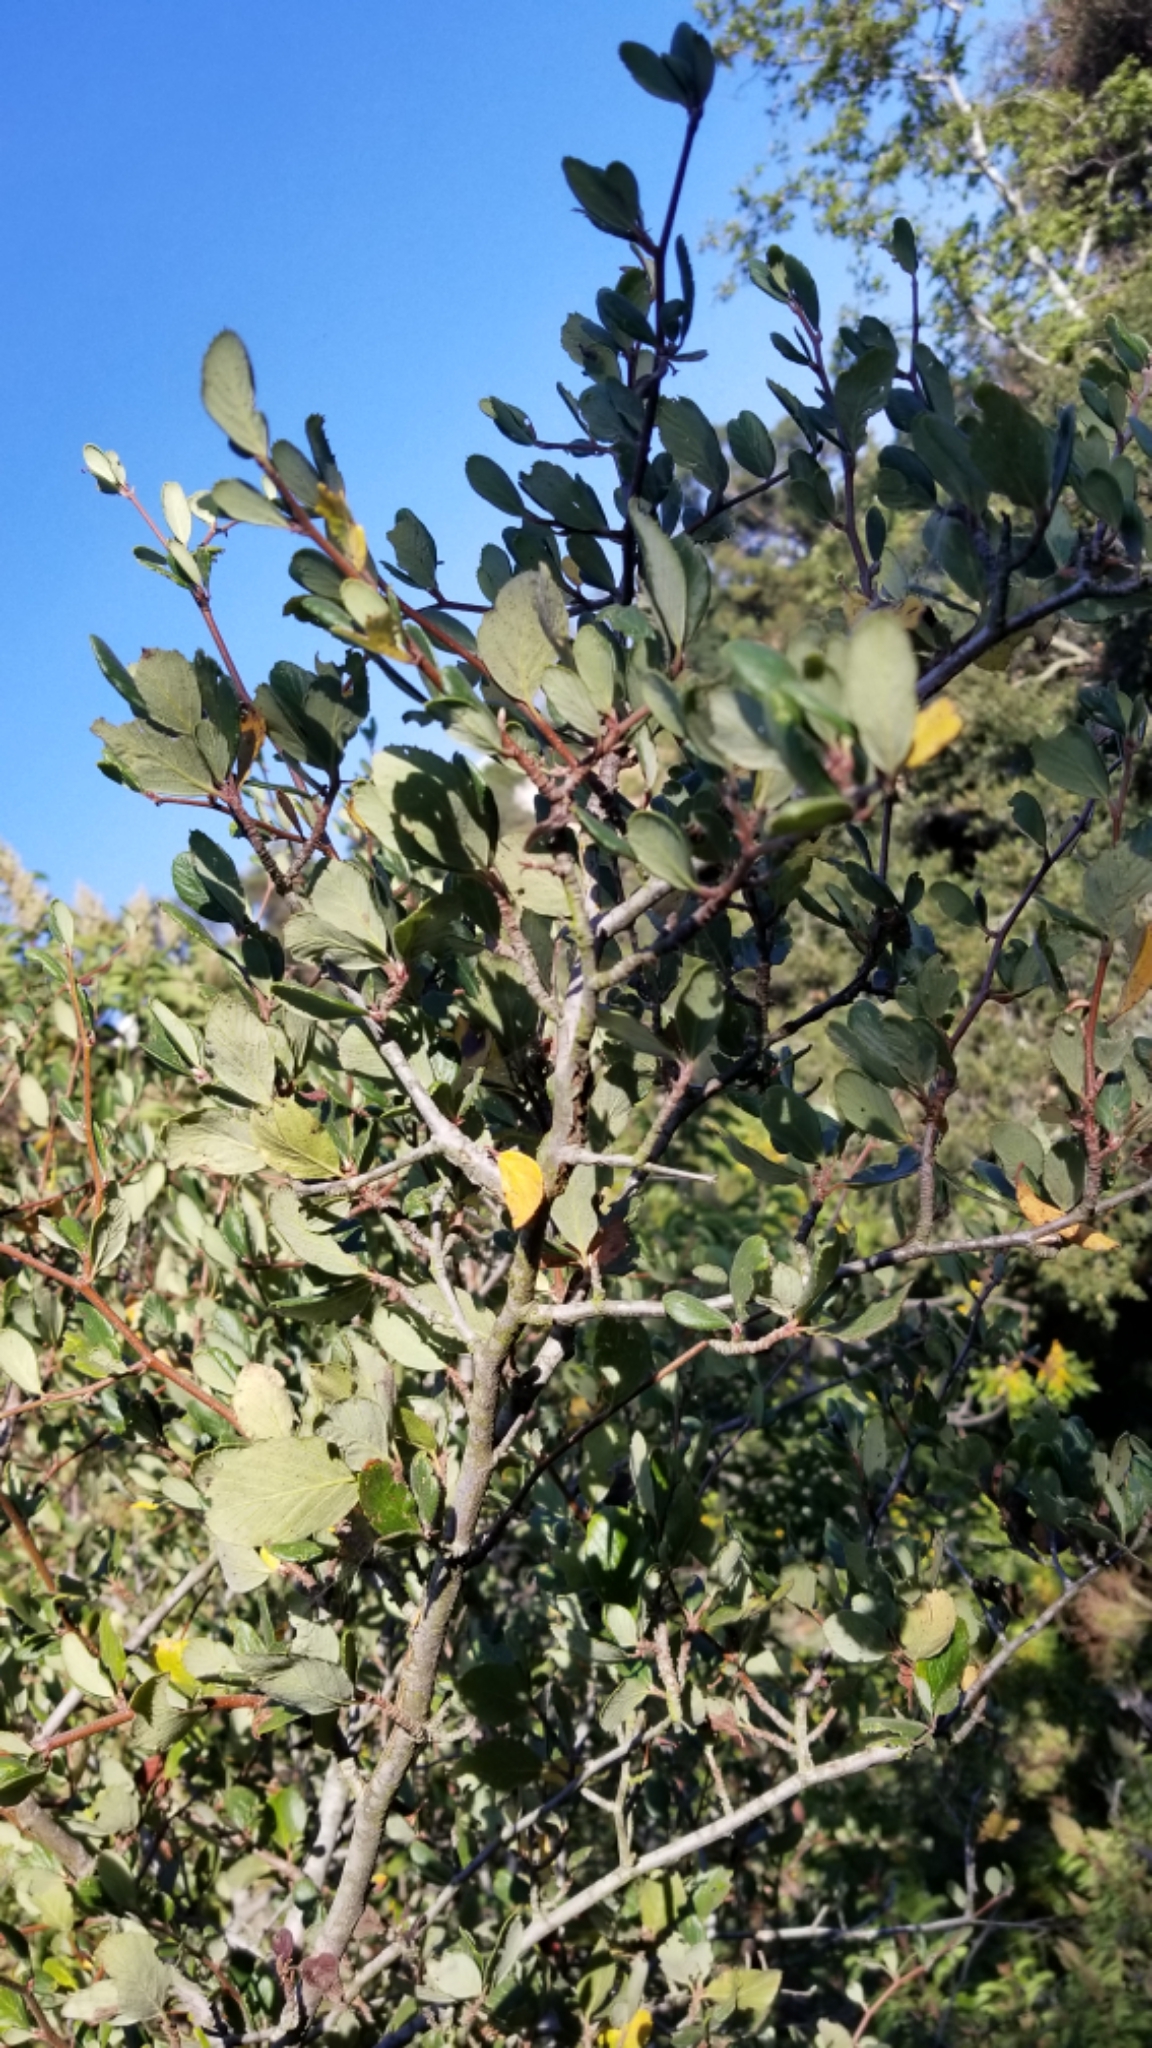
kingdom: Plantae
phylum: Tracheophyta
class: Magnoliopsida
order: Rosales
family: Rhamnaceae
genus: Ceanothus
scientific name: Ceanothus megacarpus
